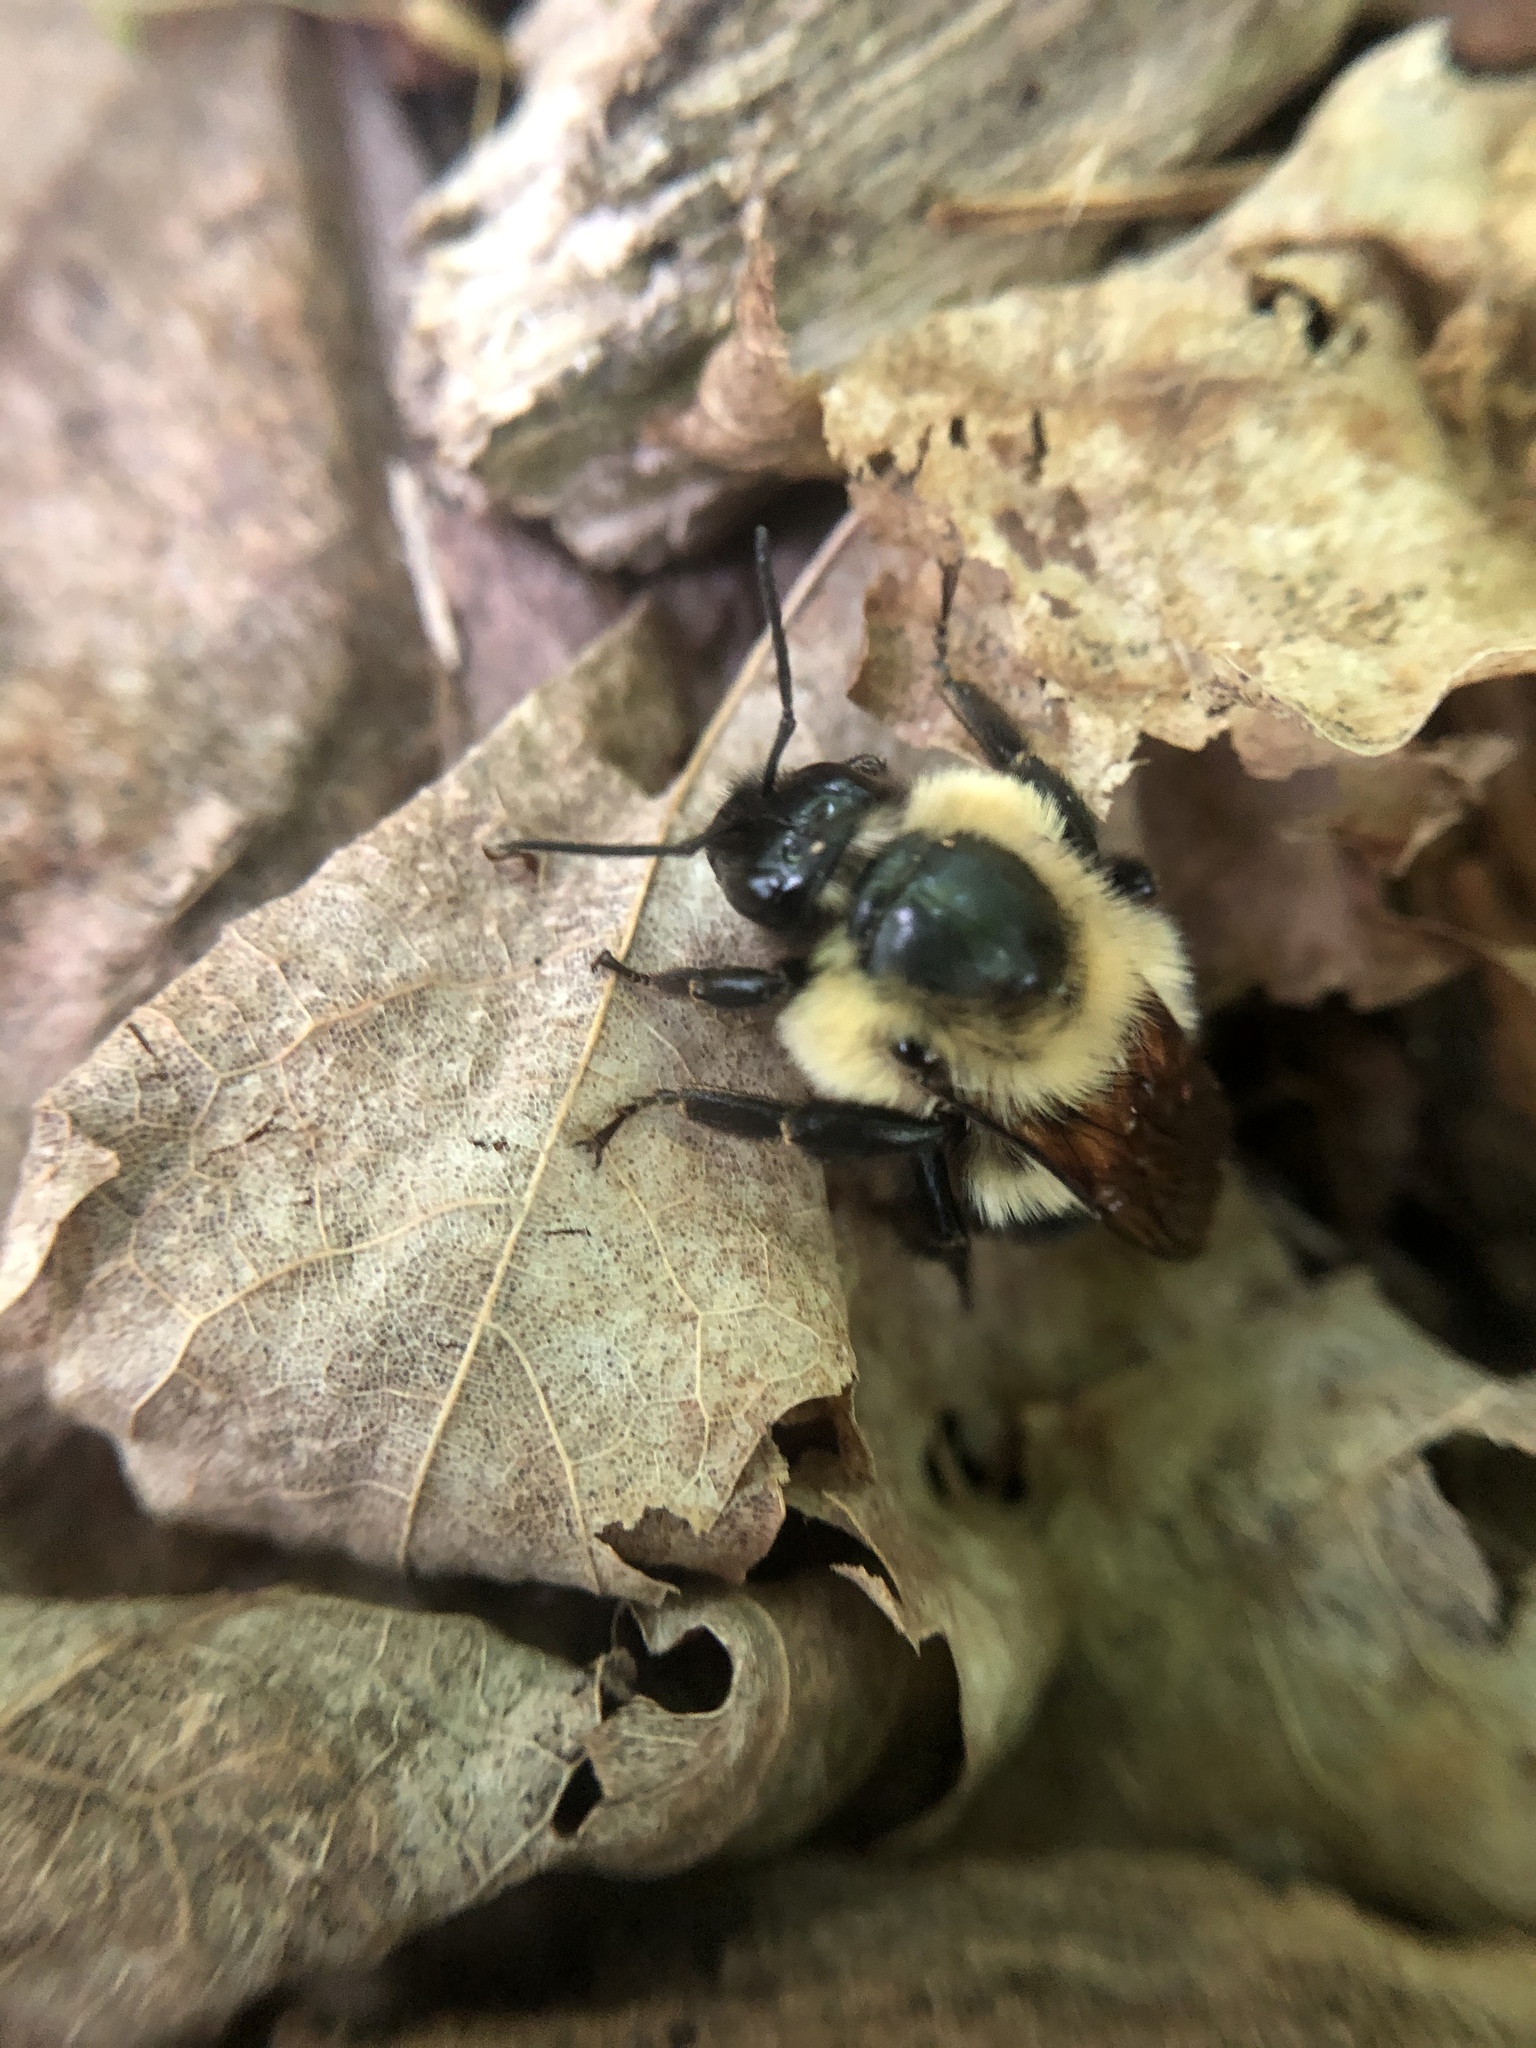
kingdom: Animalia
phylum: Arthropoda
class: Insecta
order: Hymenoptera
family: Apidae
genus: Bombus
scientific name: Bombus impatiens
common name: Common eastern bumble bee
